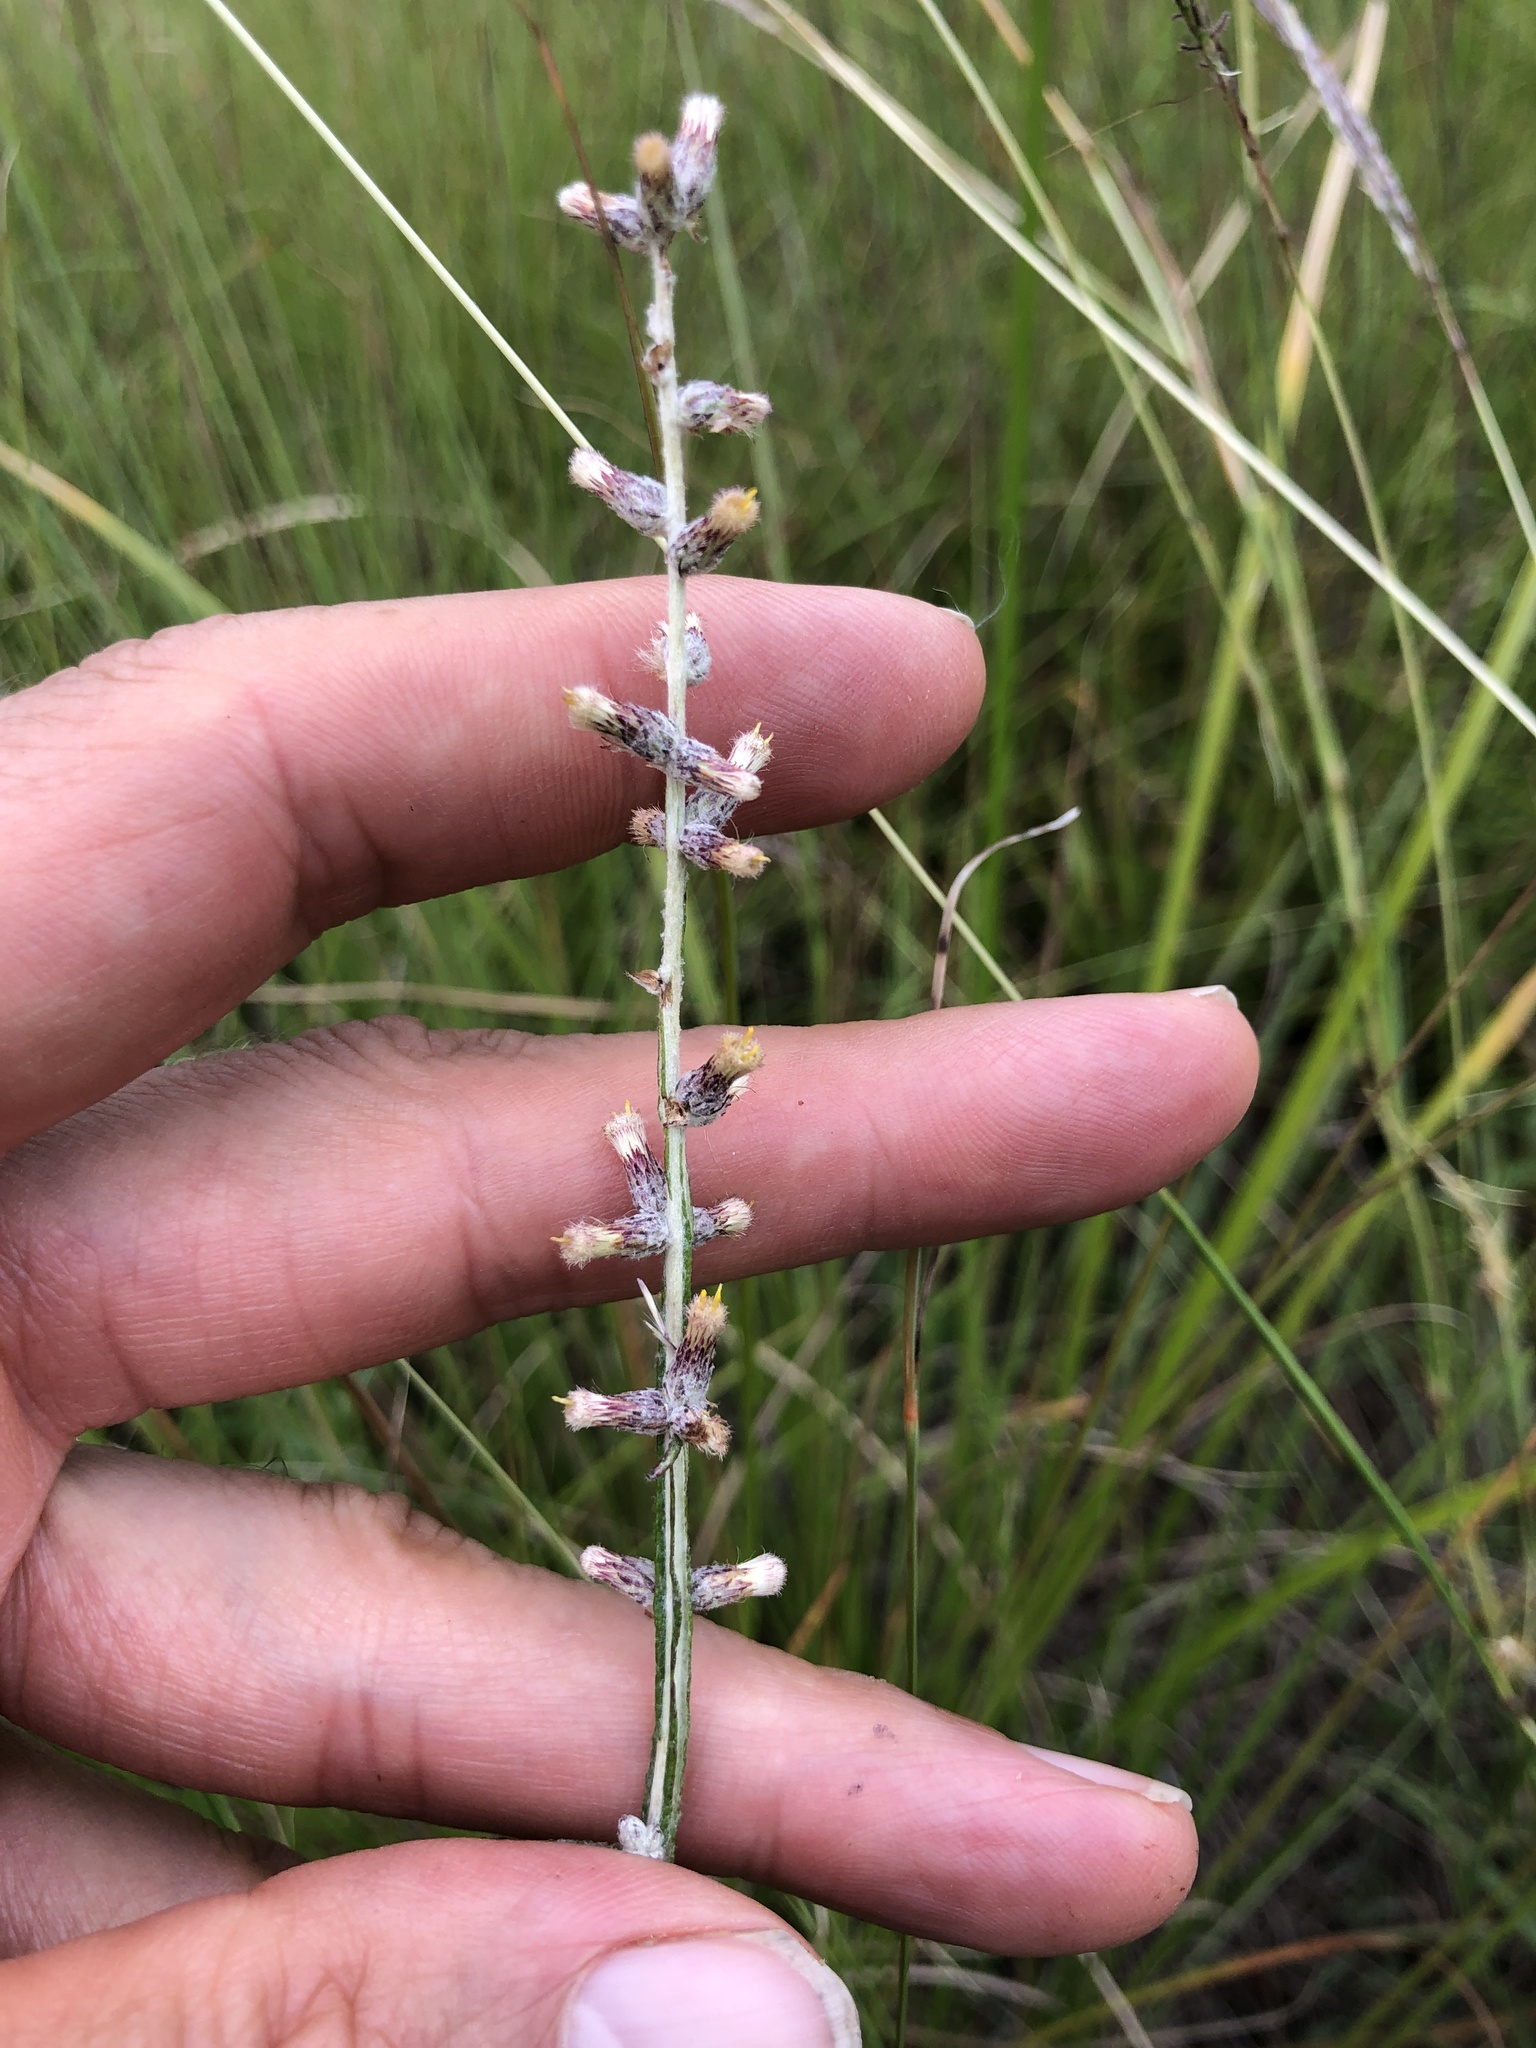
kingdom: Plantae
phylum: Tracheophyta
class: Magnoliopsida
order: Asterales
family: Asteraceae
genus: Pterocaulon
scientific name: Pterocaulon virgatum
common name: Wand blackroot
